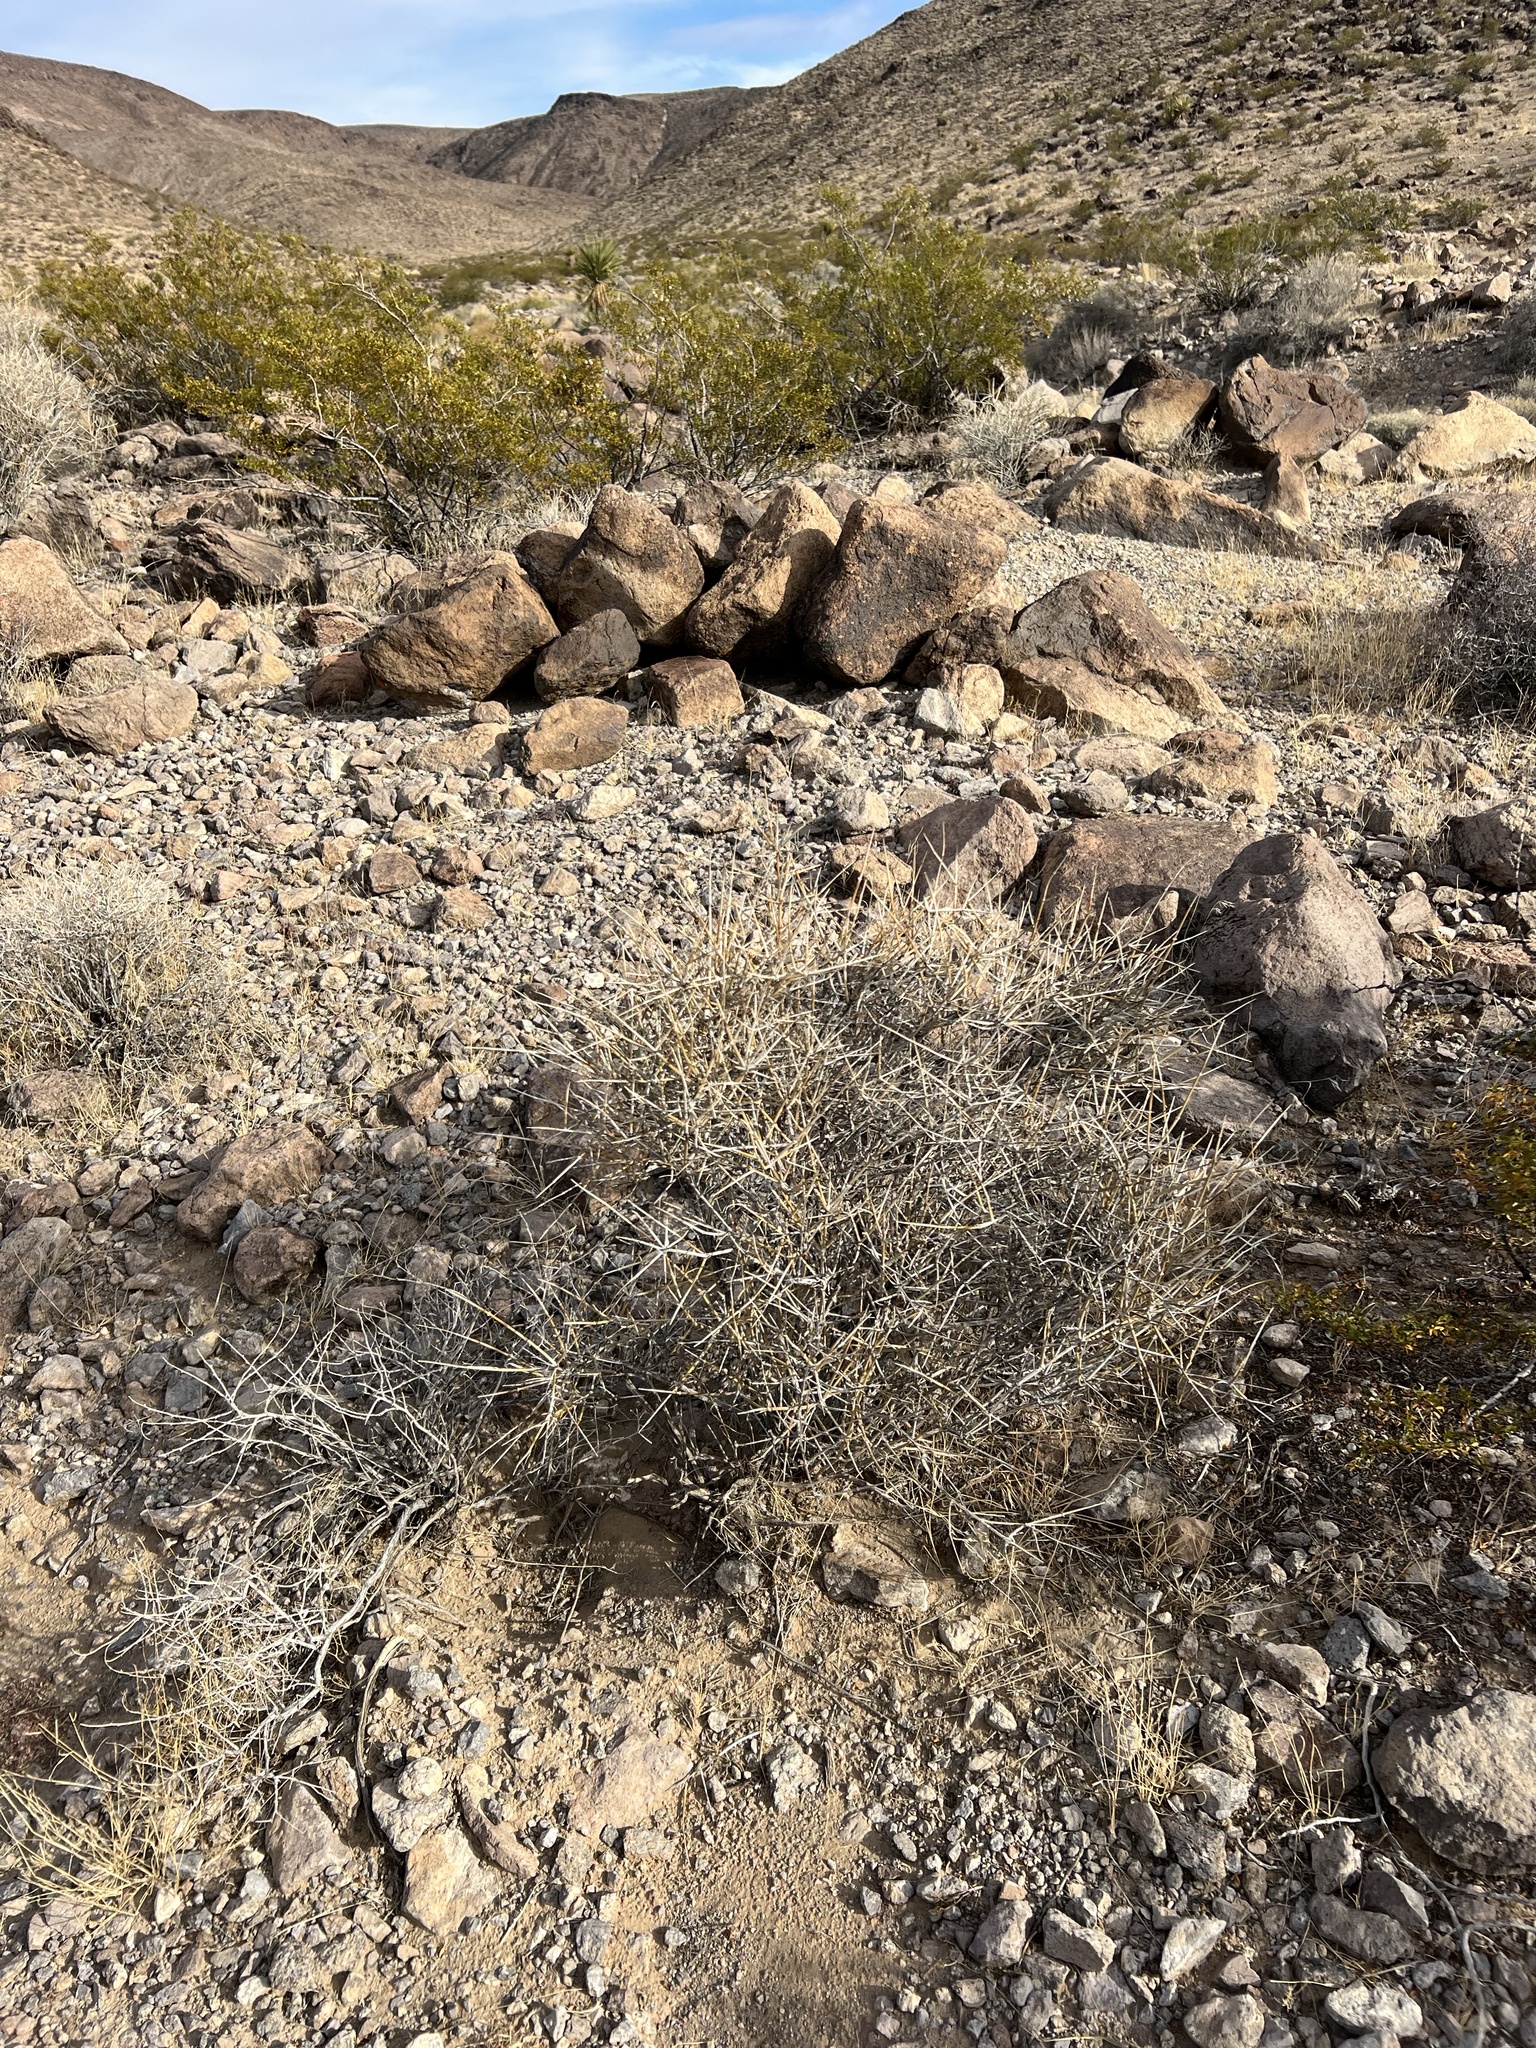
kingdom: Plantae
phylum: Tracheophyta
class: Gnetopsida
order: Ephedrales
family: Ephedraceae
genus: Ephedra
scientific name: Ephedra nevadensis
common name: Gray ephedra
